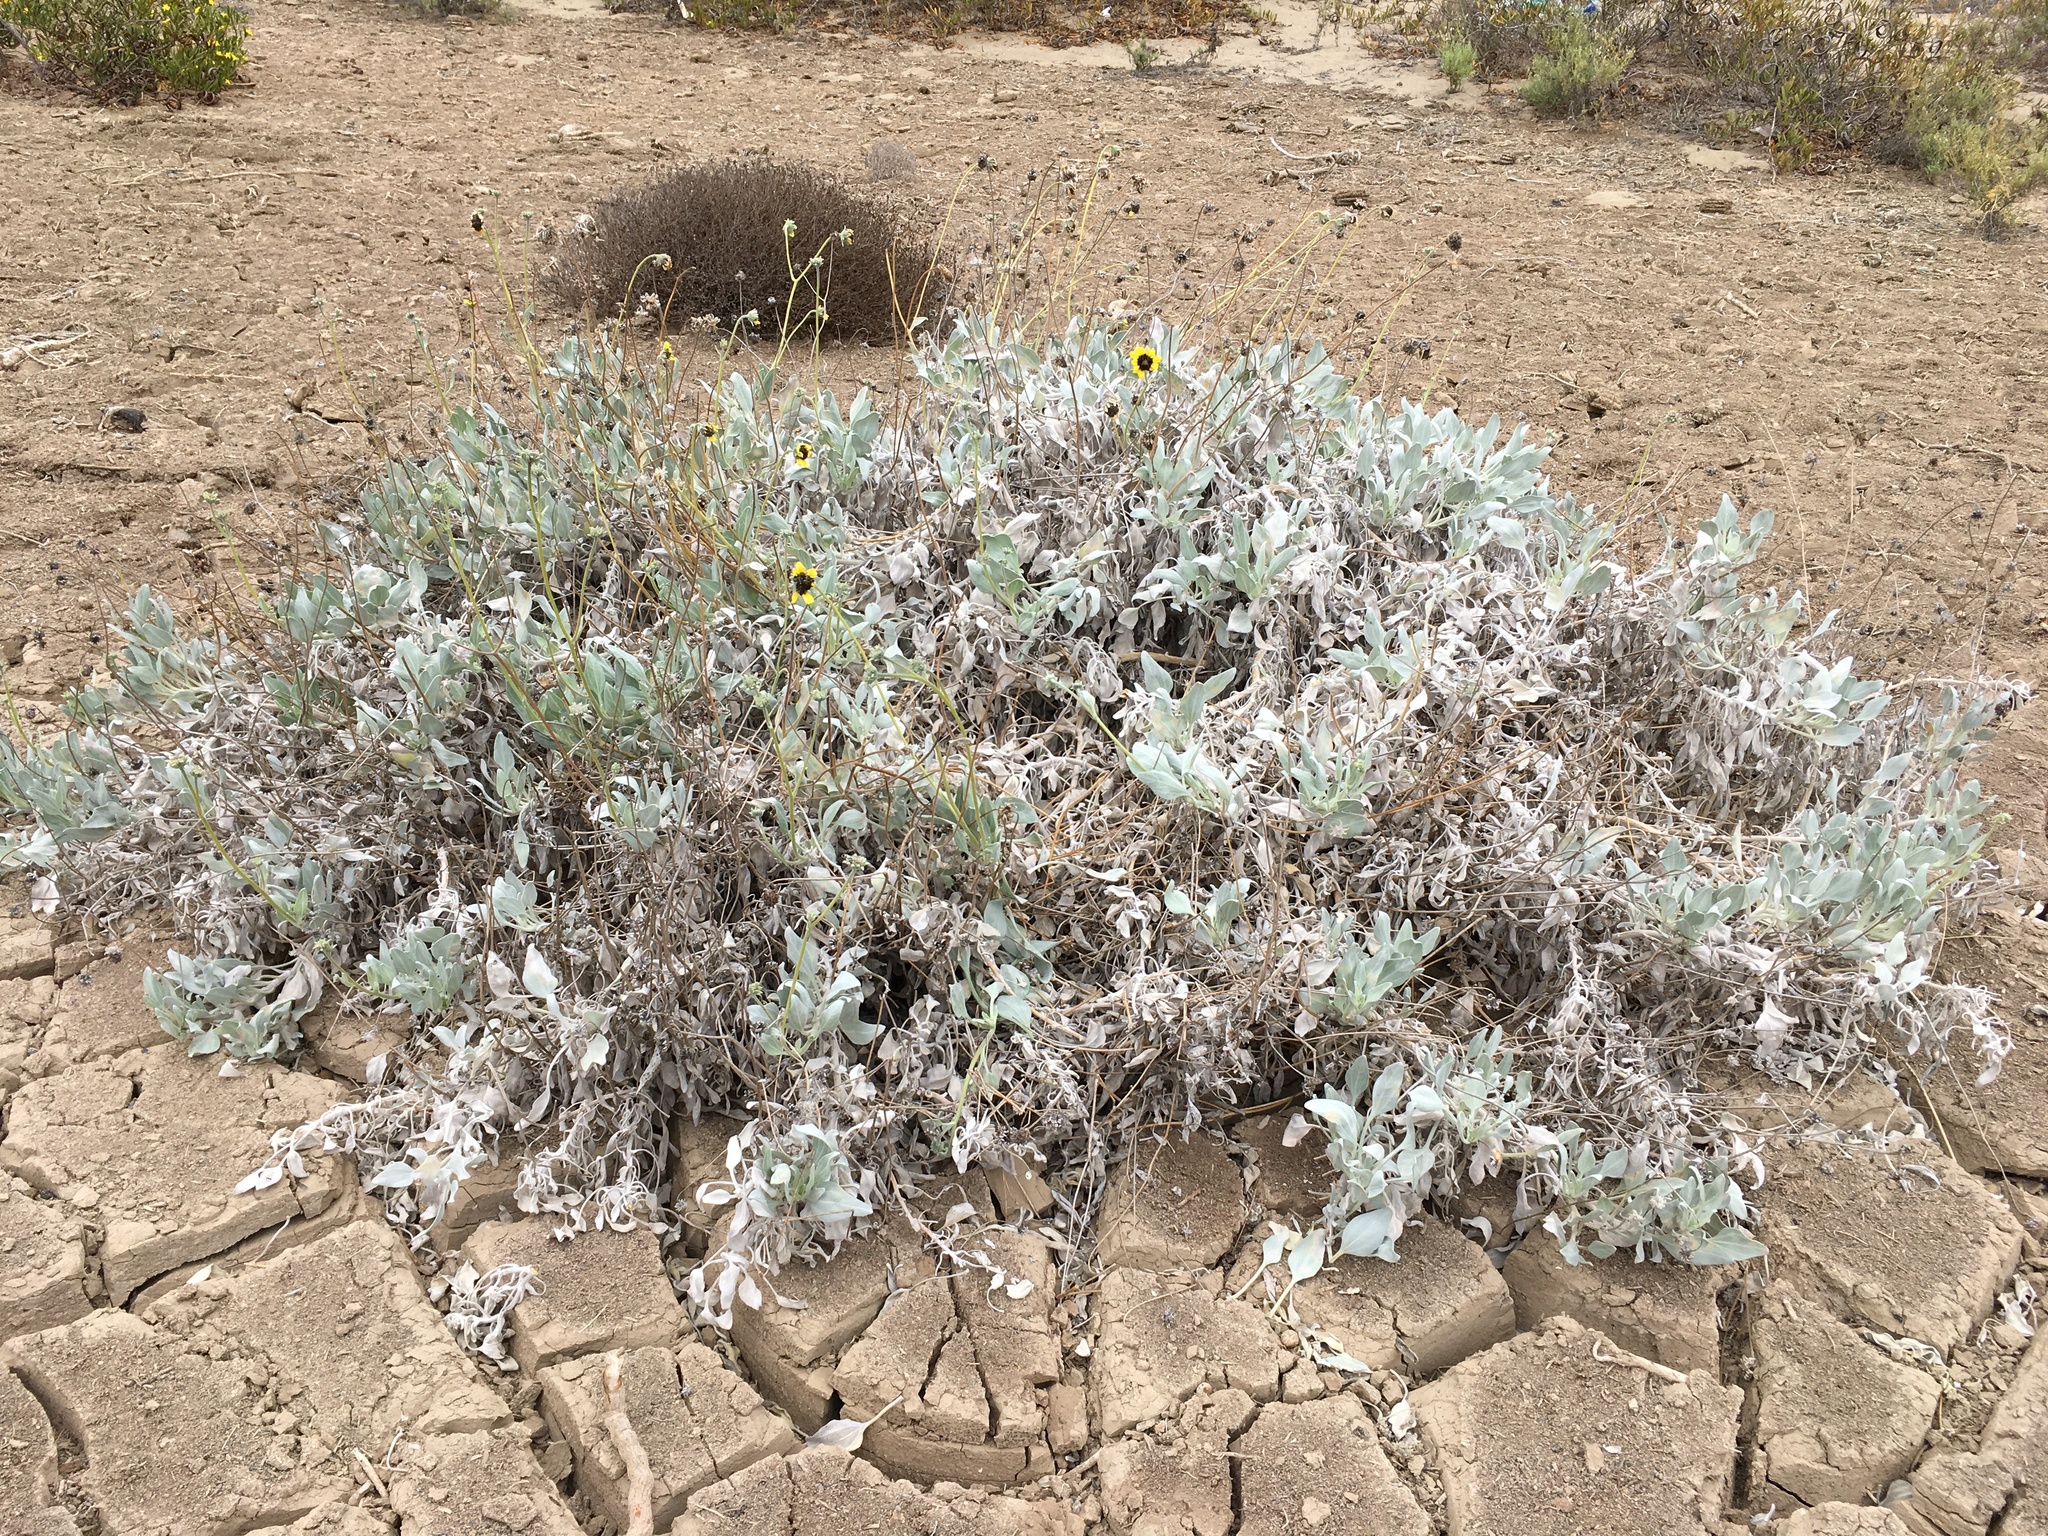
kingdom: Plantae
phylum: Tracheophyta
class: Magnoliopsida
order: Asterales
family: Asteraceae
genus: Encelia
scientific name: Encelia canescens
